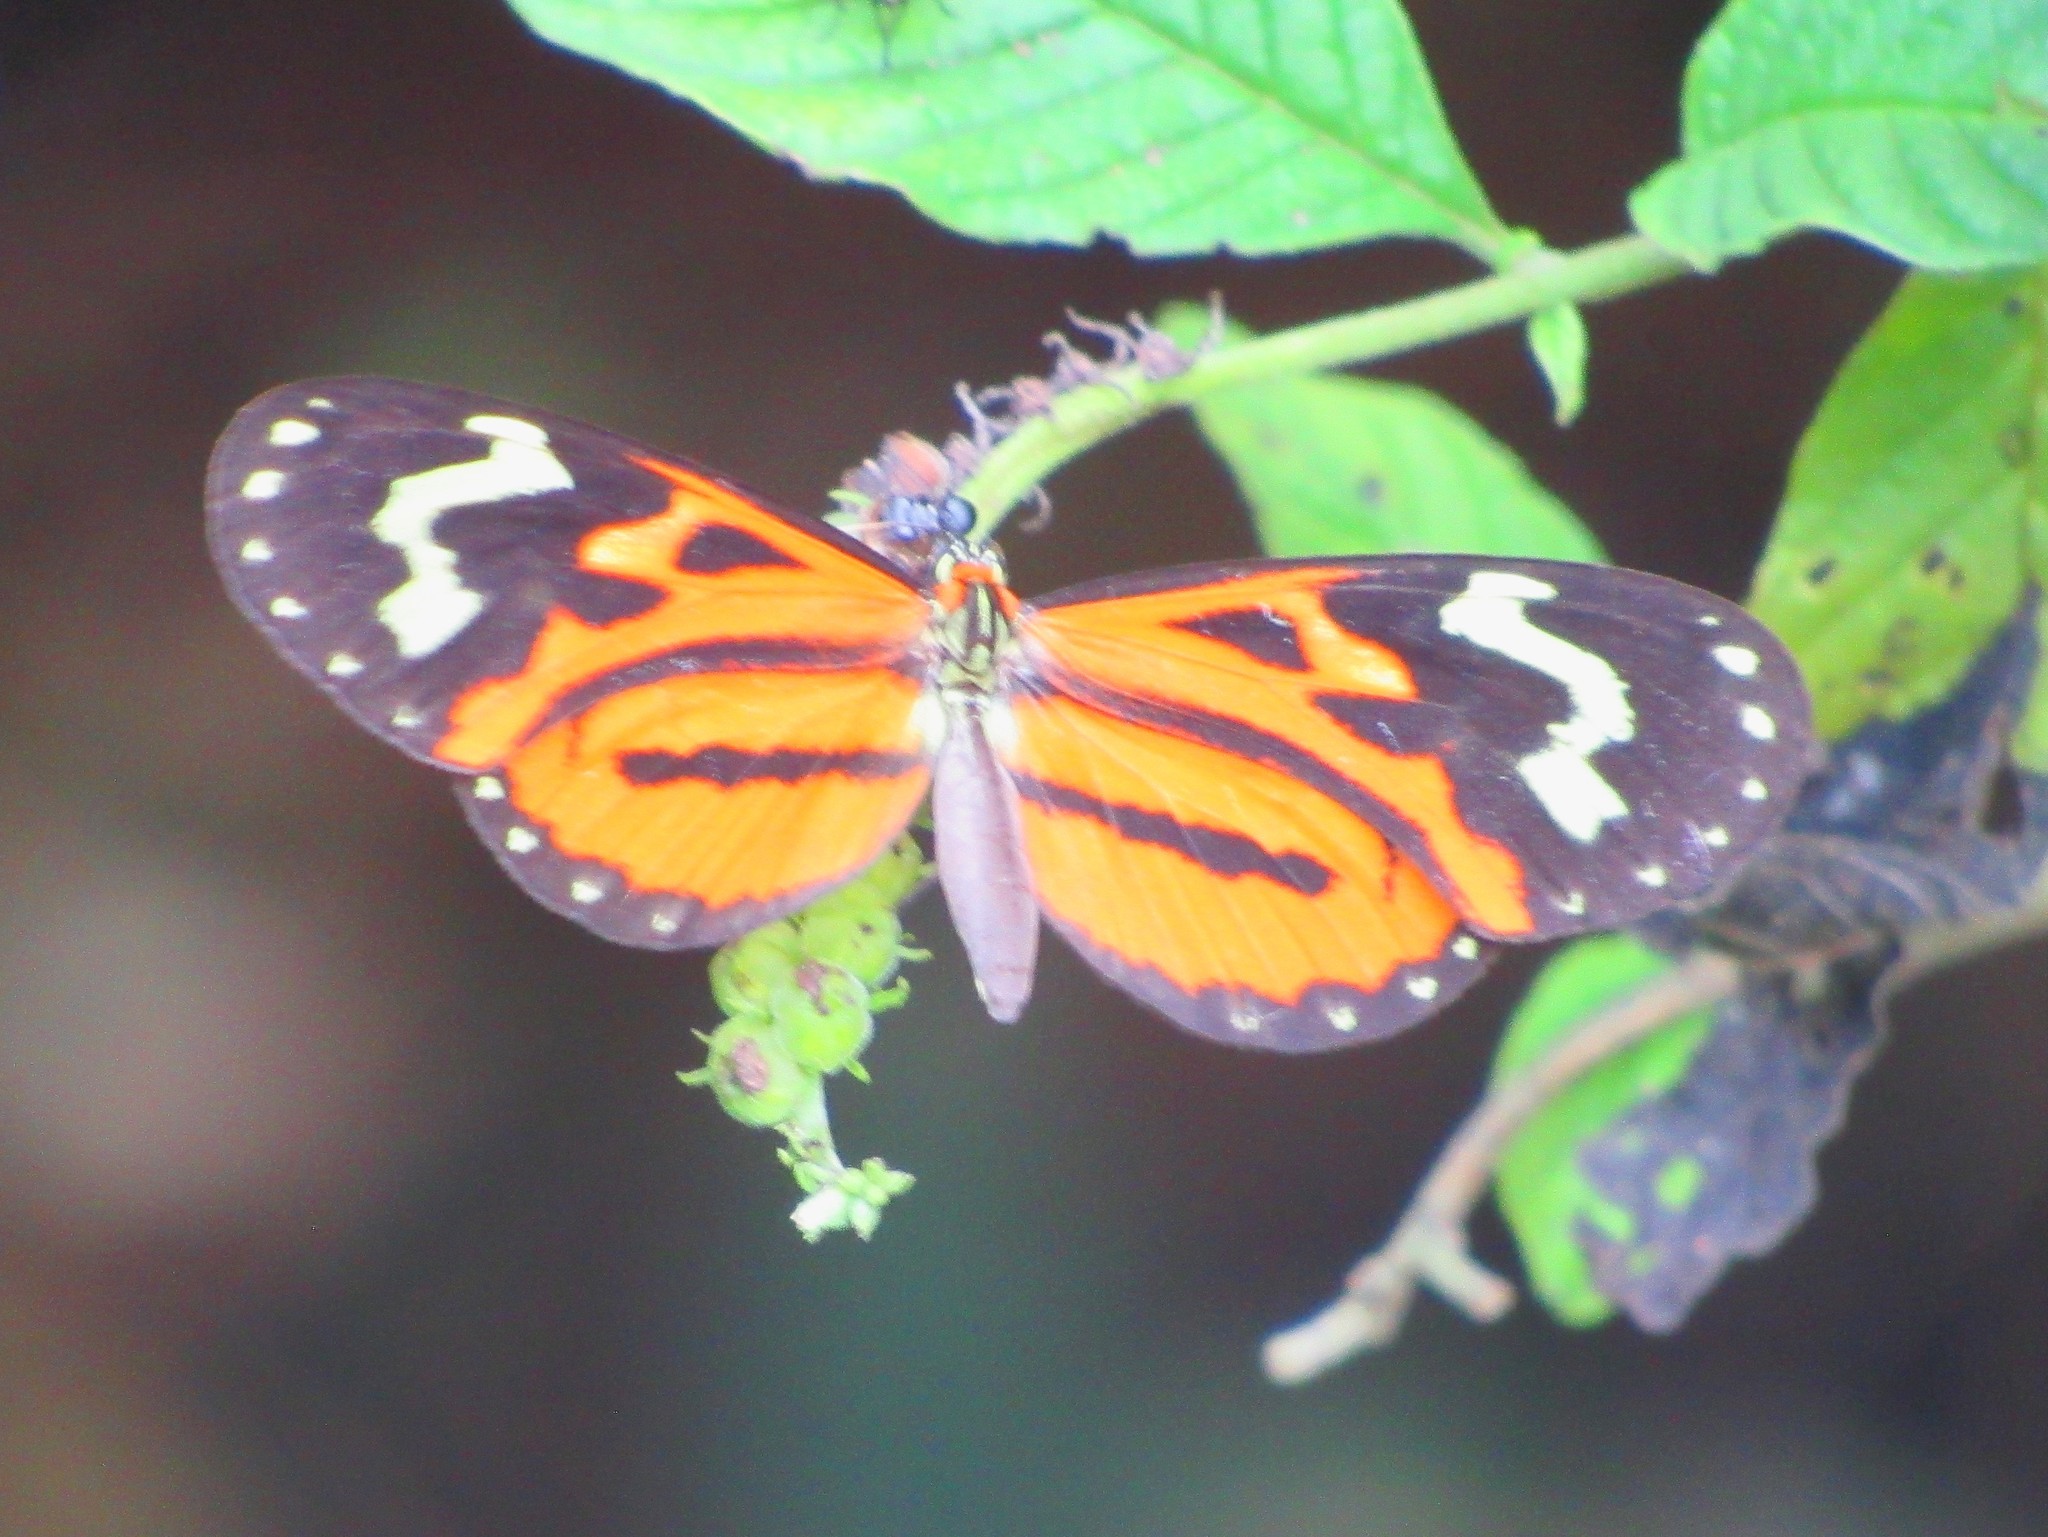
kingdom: Animalia
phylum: Arthropoda
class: Insecta
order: Lepidoptera
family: Nymphalidae
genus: Hypothyris
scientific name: Hypothyris euclea
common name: Euclea tigerwing
